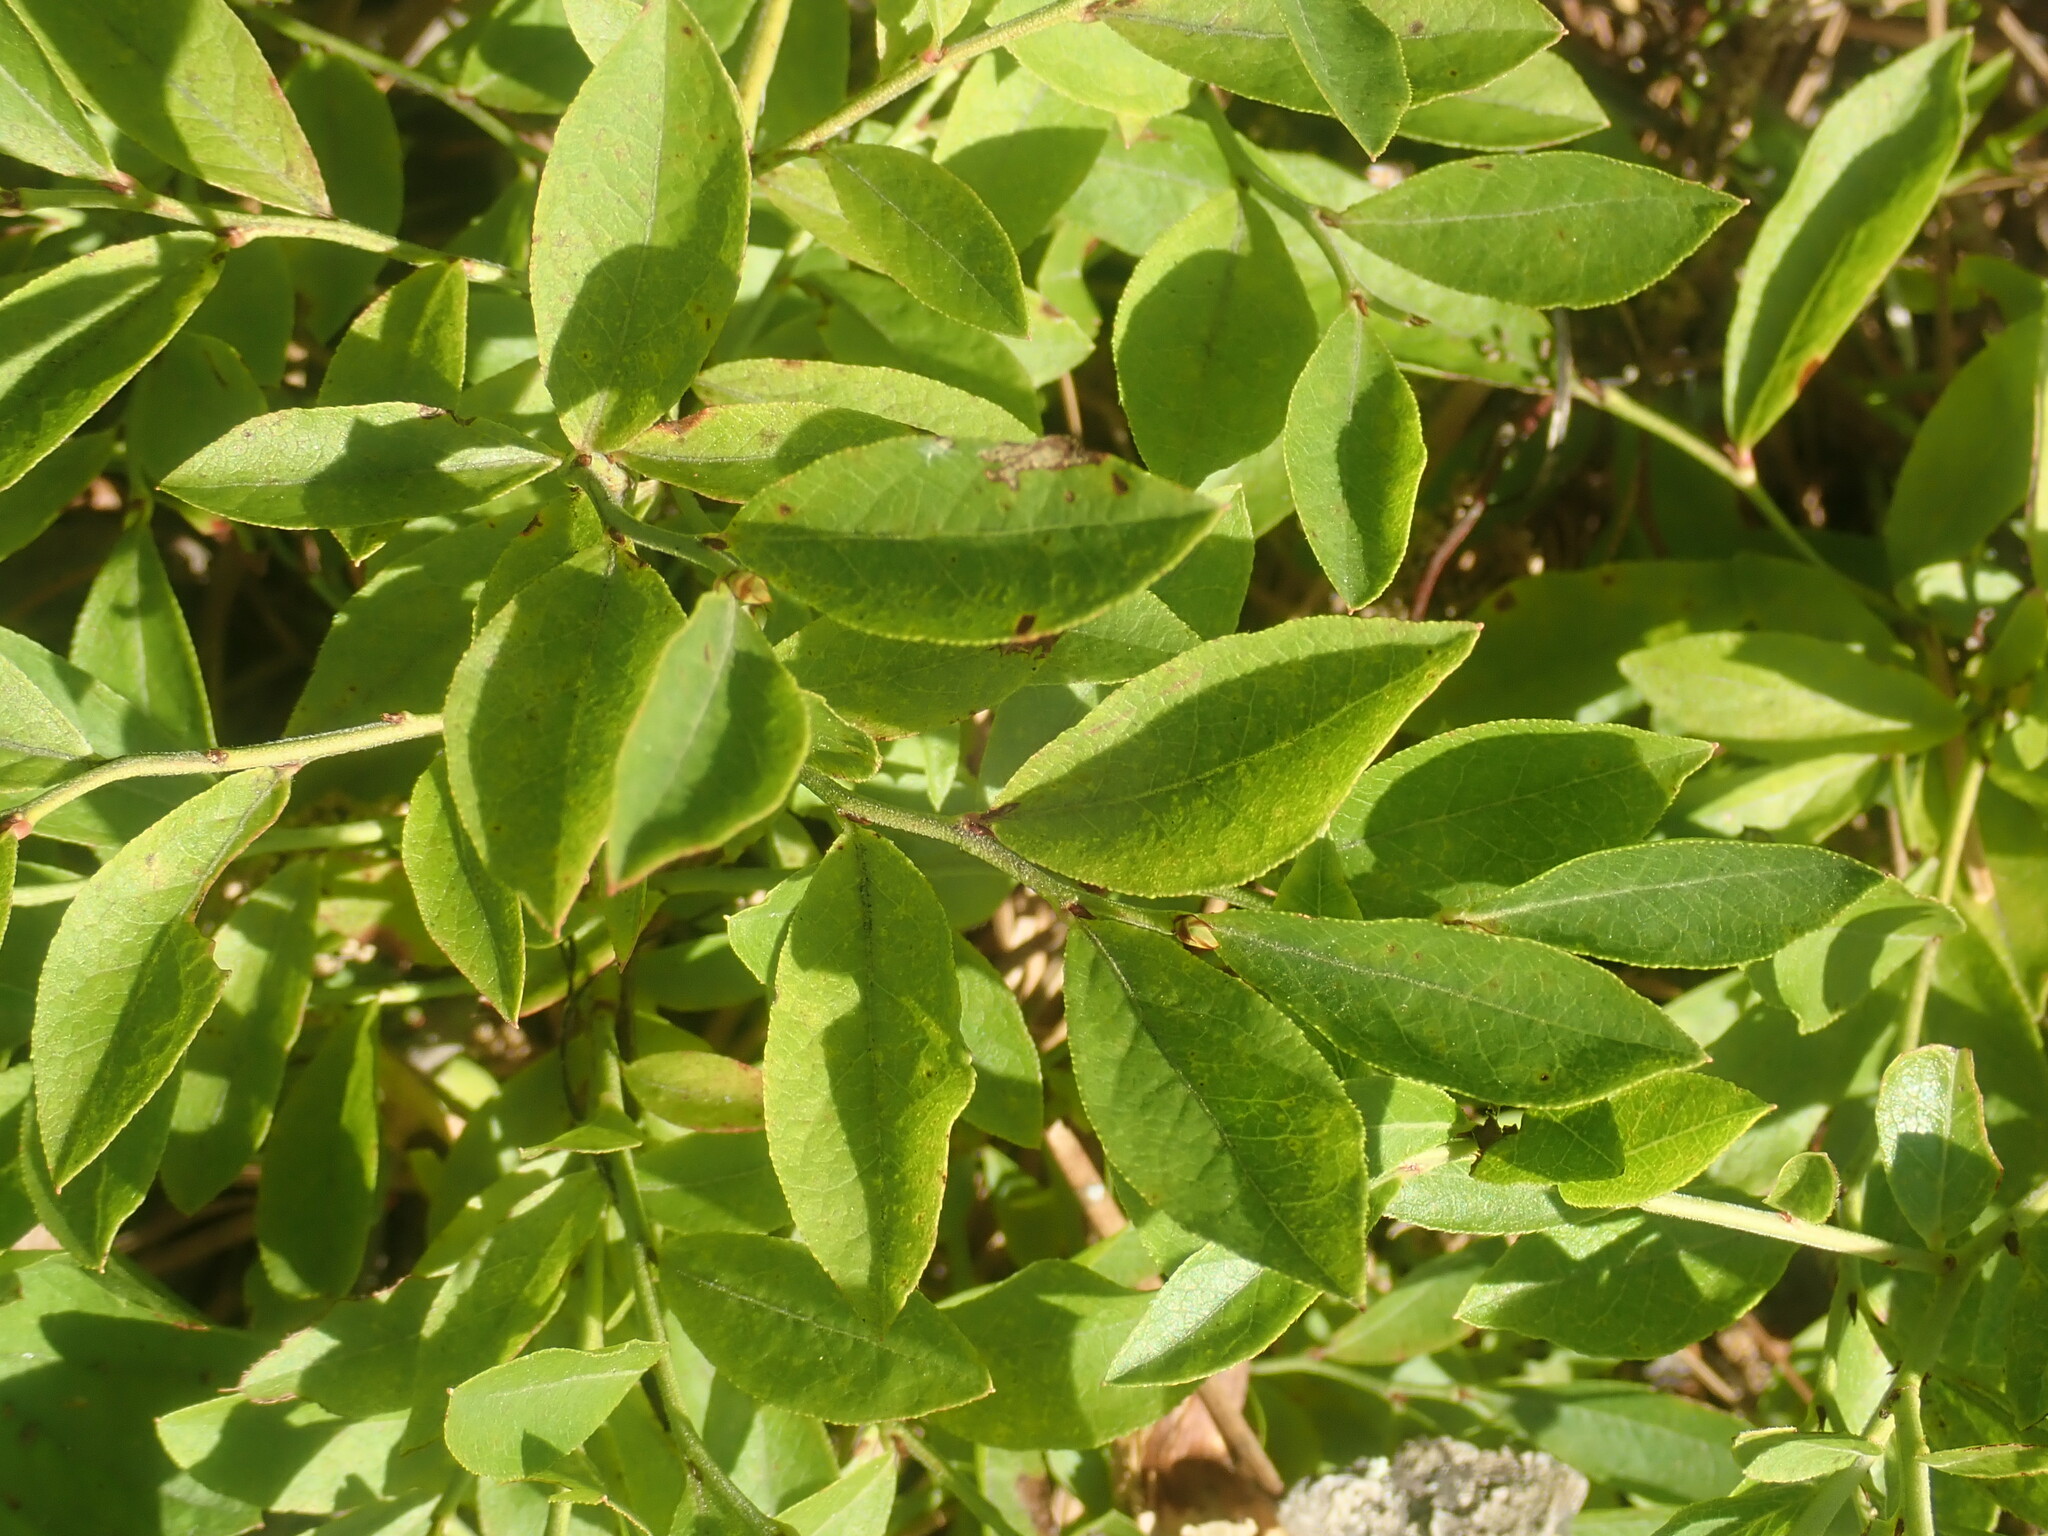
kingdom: Plantae
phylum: Tracheophyta
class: Magnoliopsida
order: Ericales
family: Ericaceae
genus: Vaccinium
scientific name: Vaccinium angustifolium
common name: Early lowbush blueberry
